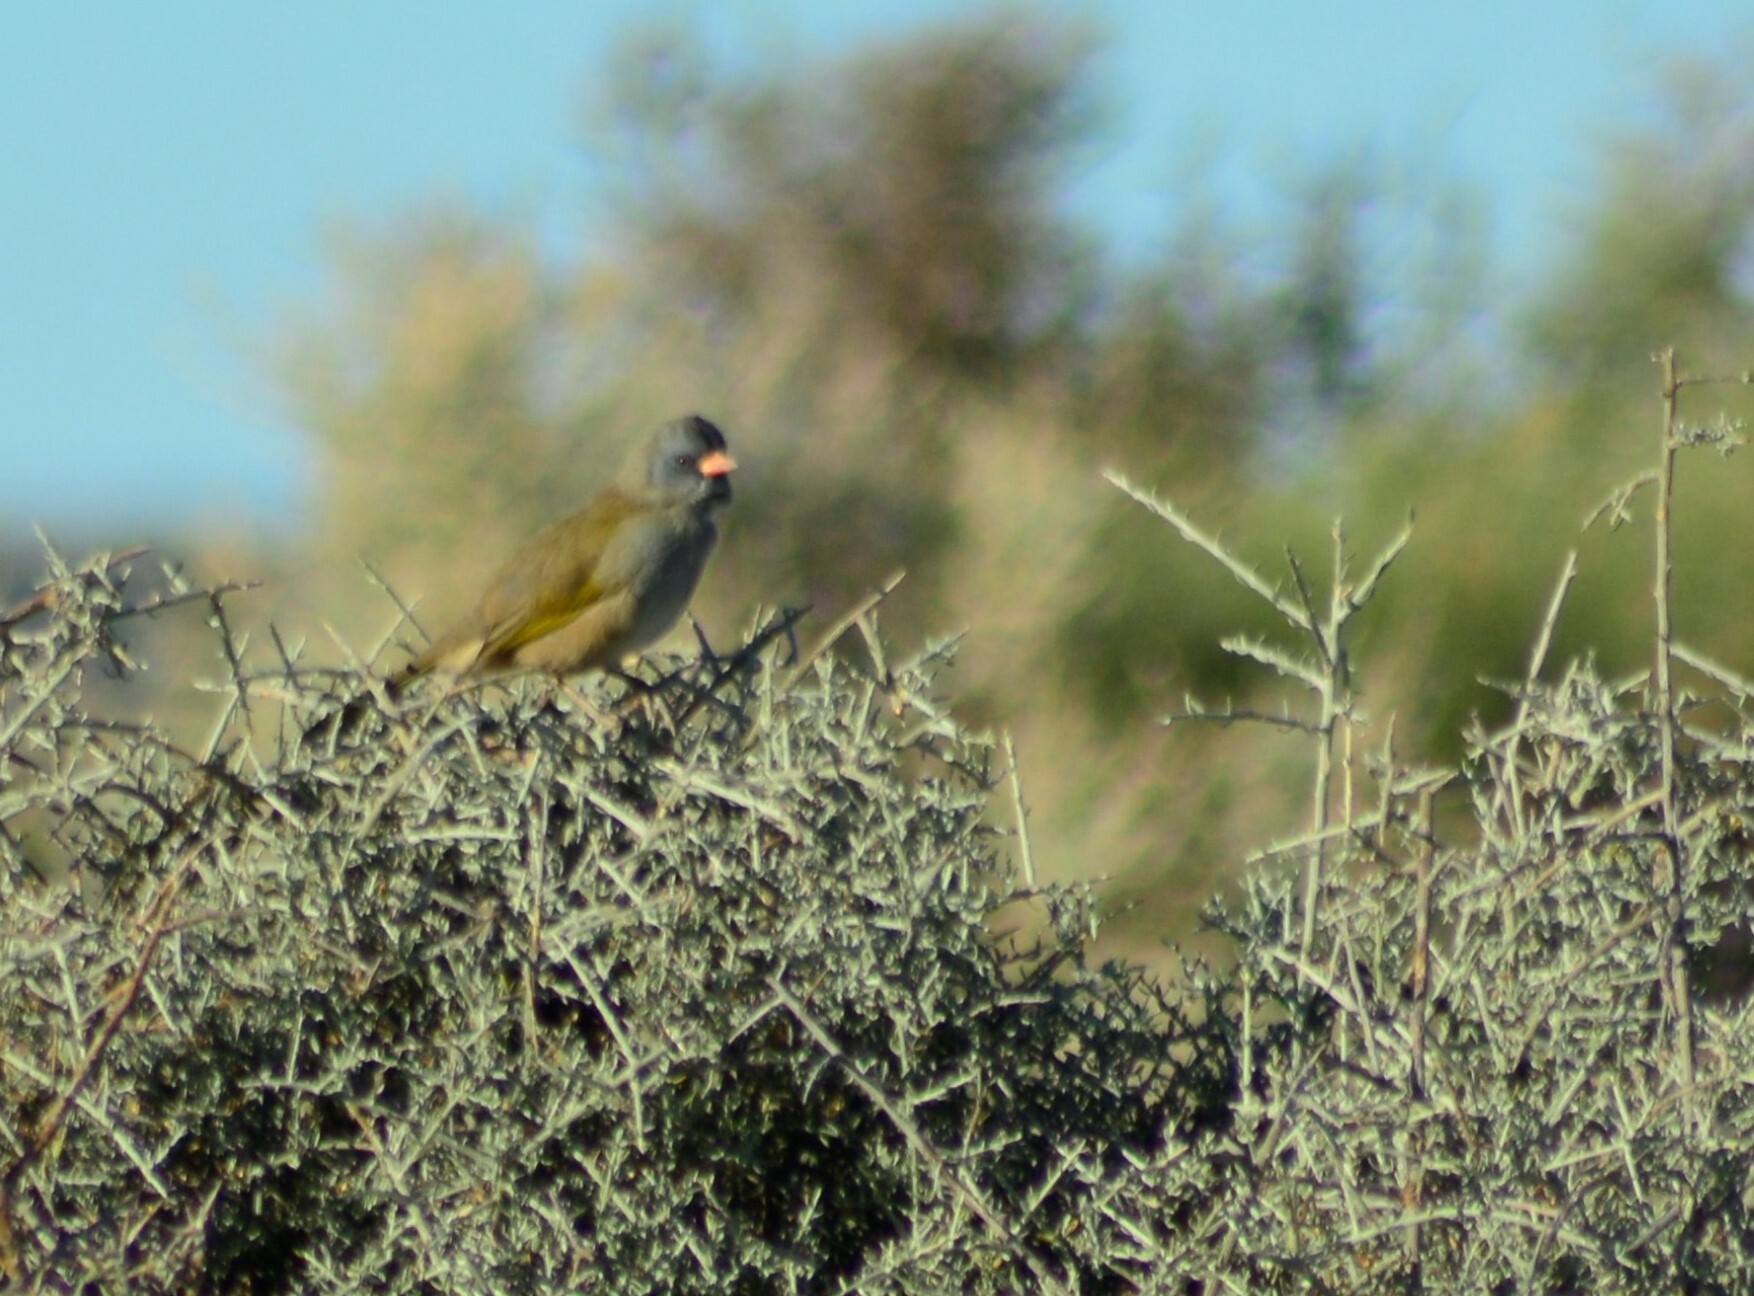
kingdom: Animalia
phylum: Chordata
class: Aves
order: Passeriformes
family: Thraupidae
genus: Embernagra
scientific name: Embernagra platensis
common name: Pampa finch
